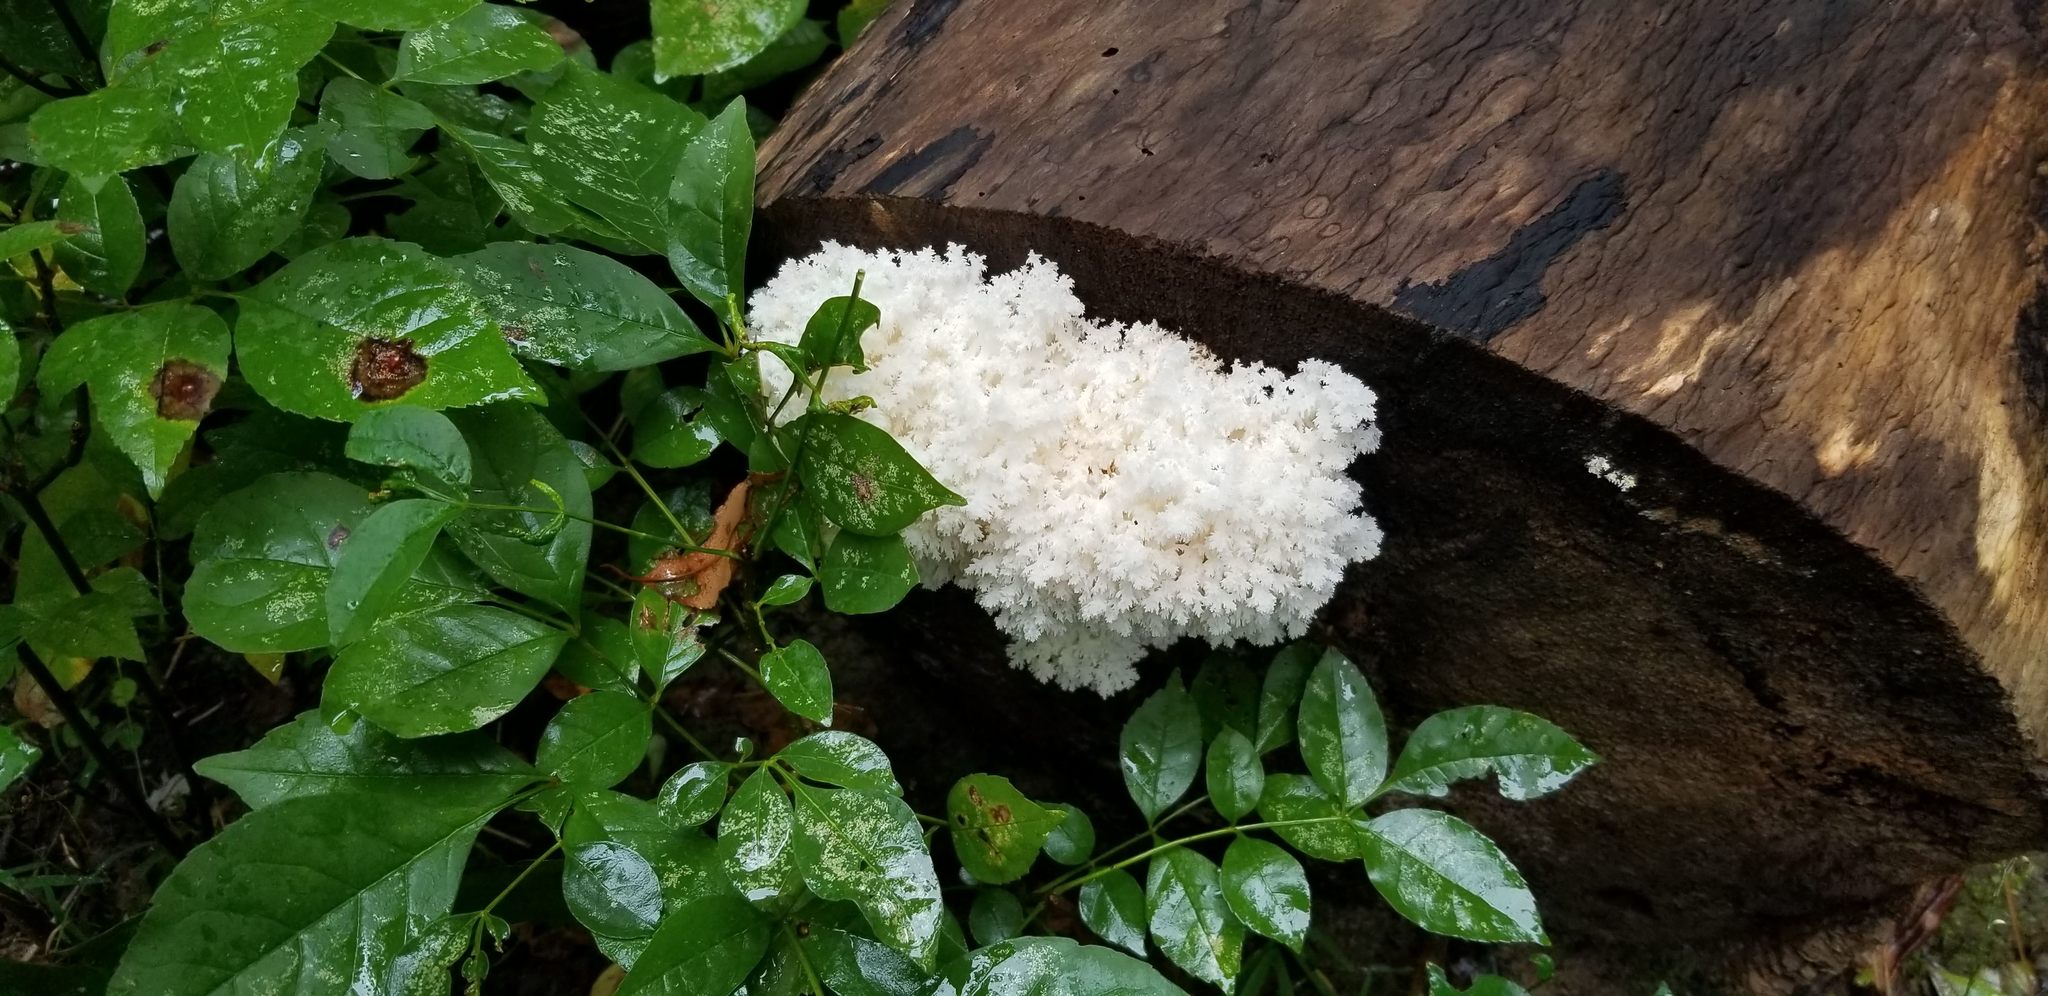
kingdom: Fungi
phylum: Basidiomycota
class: Agaricomycetes
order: Russulales
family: Hericiaceae
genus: Hericium
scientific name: Hericium coralloides
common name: Coral tooth
